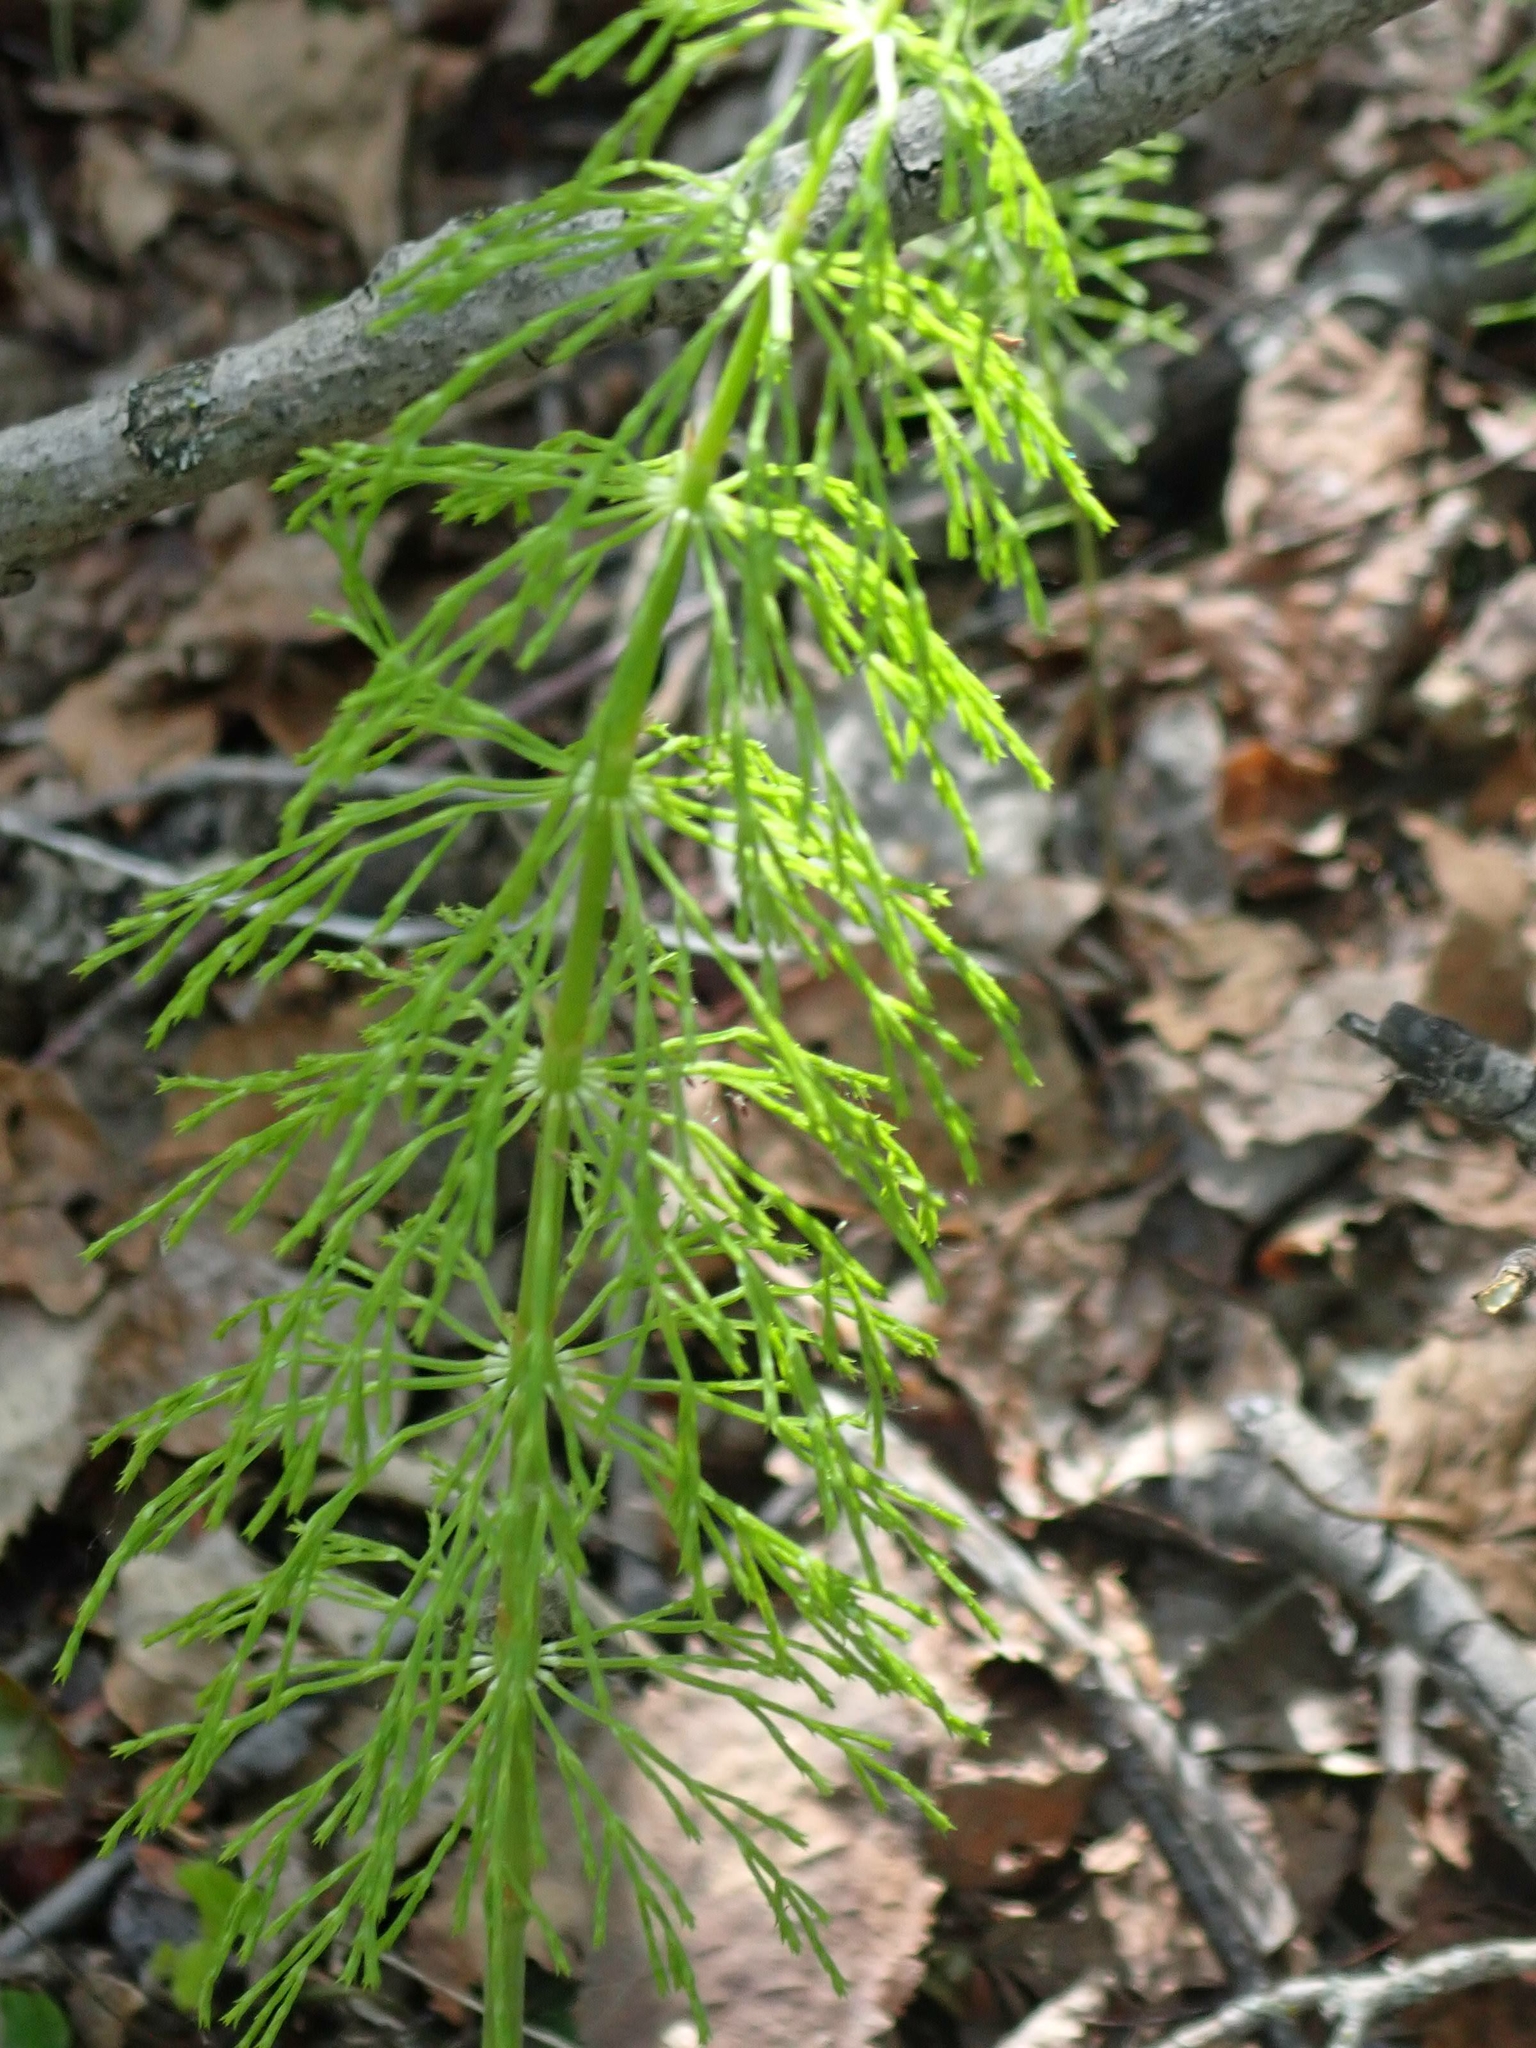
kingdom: Plantae
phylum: Tracheophyta
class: Polypodiopsida
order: Equisetales
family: Equisetaceae
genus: Equisetum
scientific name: Equisetum sylvaticum
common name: Wood horsetail
